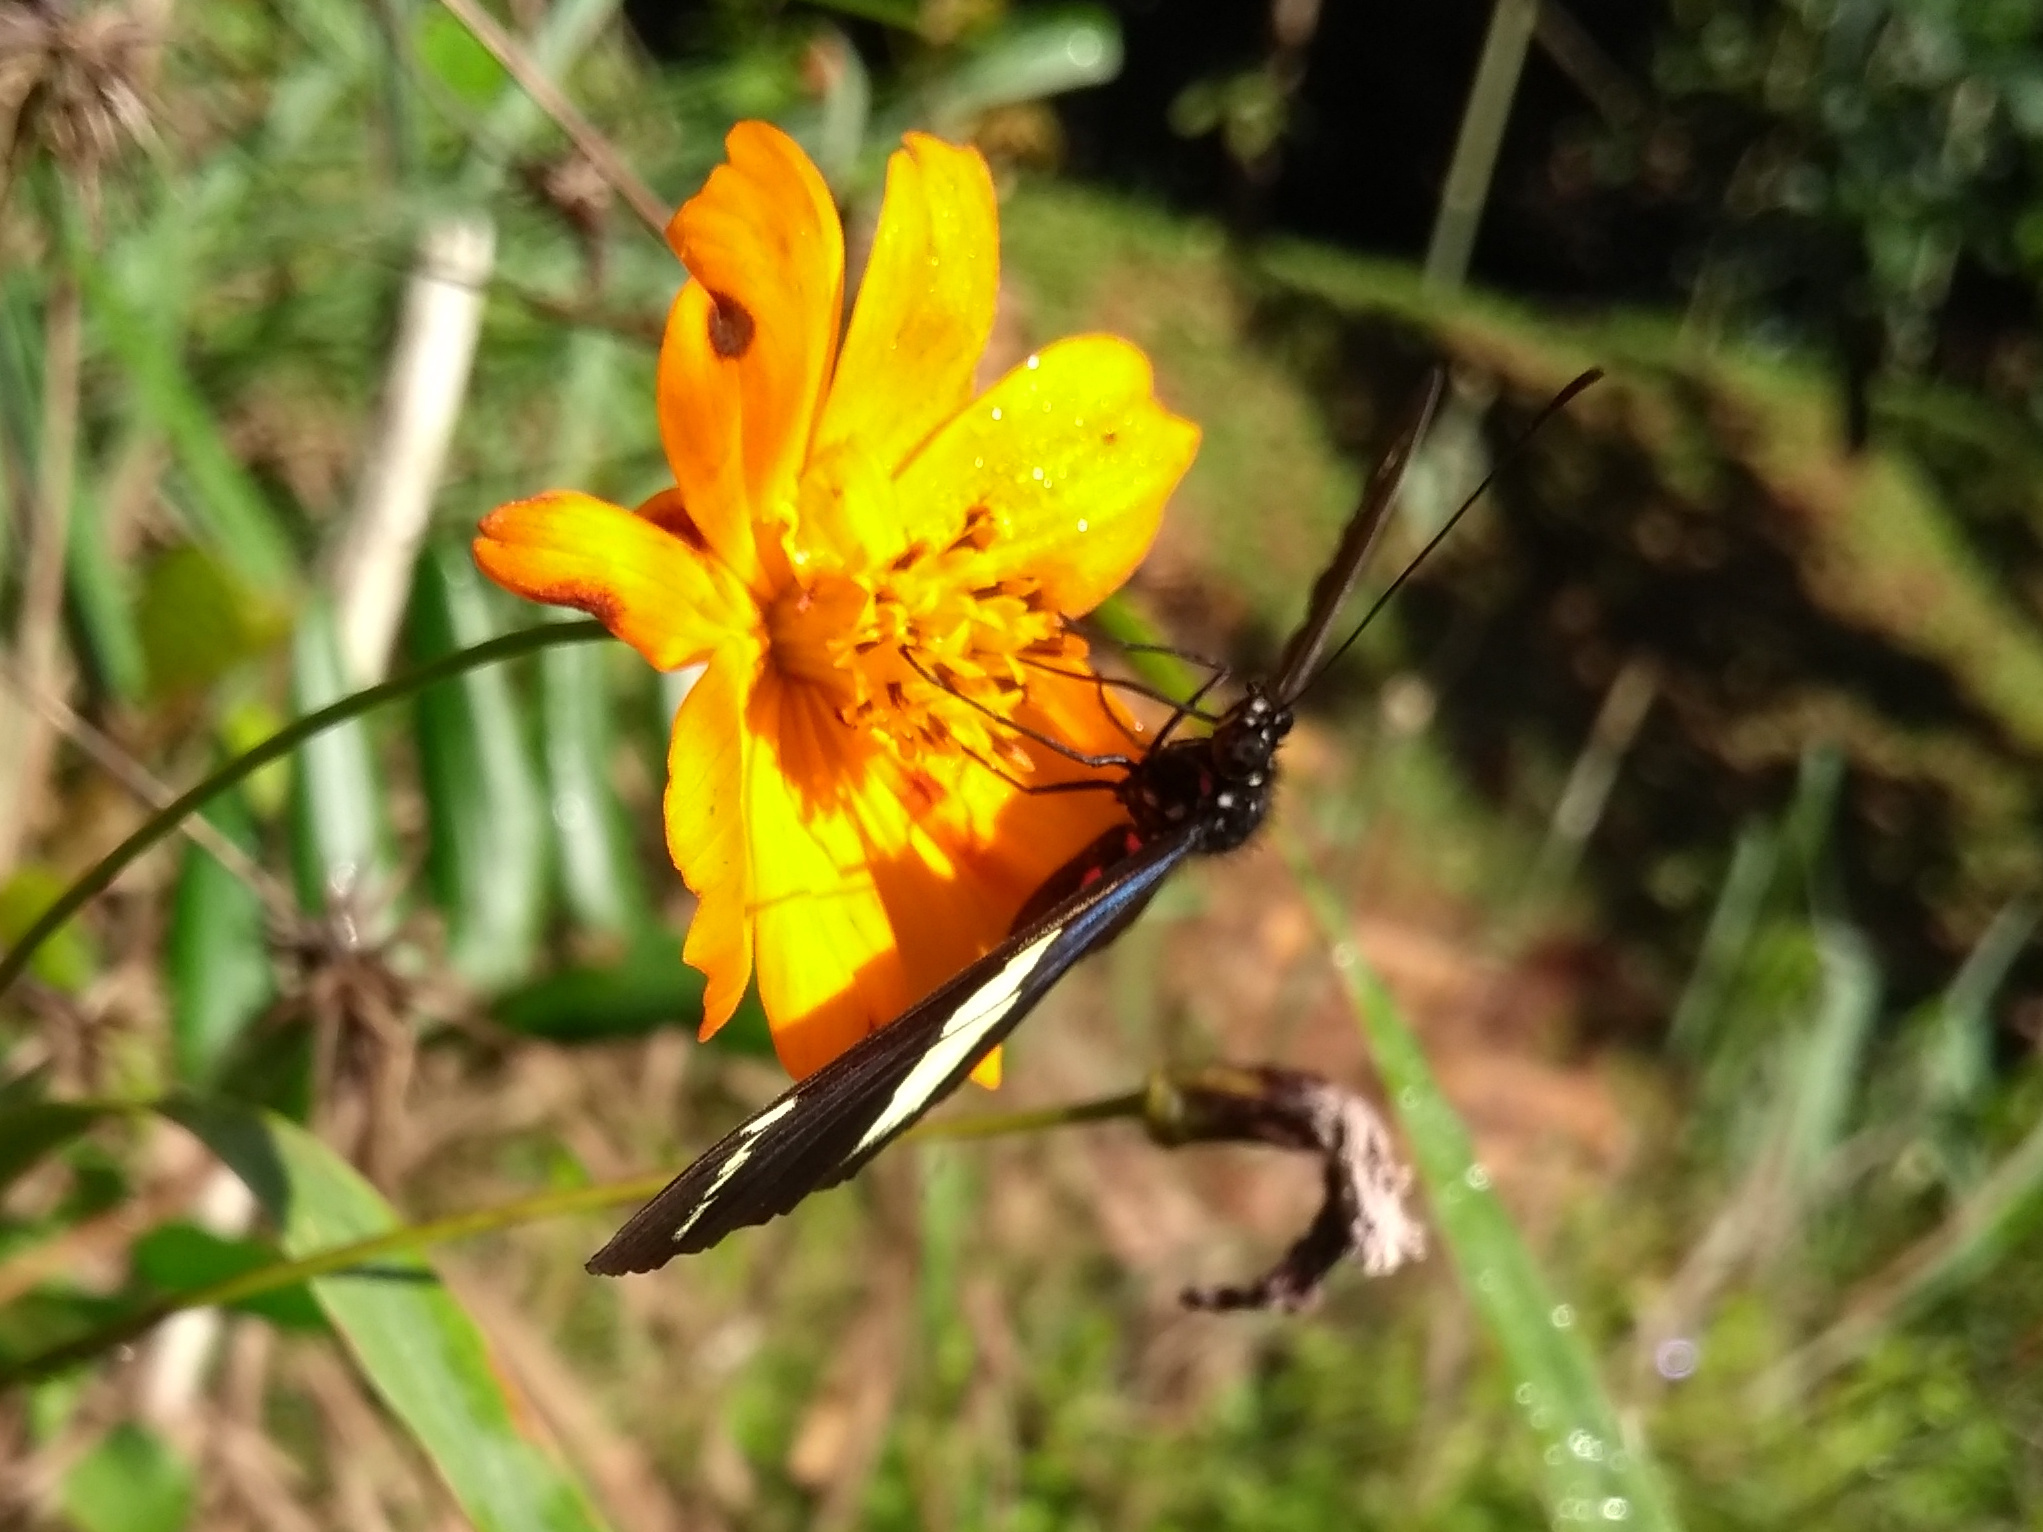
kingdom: Animalia
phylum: Arthropoda
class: Insecta
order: Lepidoptera
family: Nymphalidae
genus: Heliconius
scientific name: Heliconius sara
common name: Sara longwing
